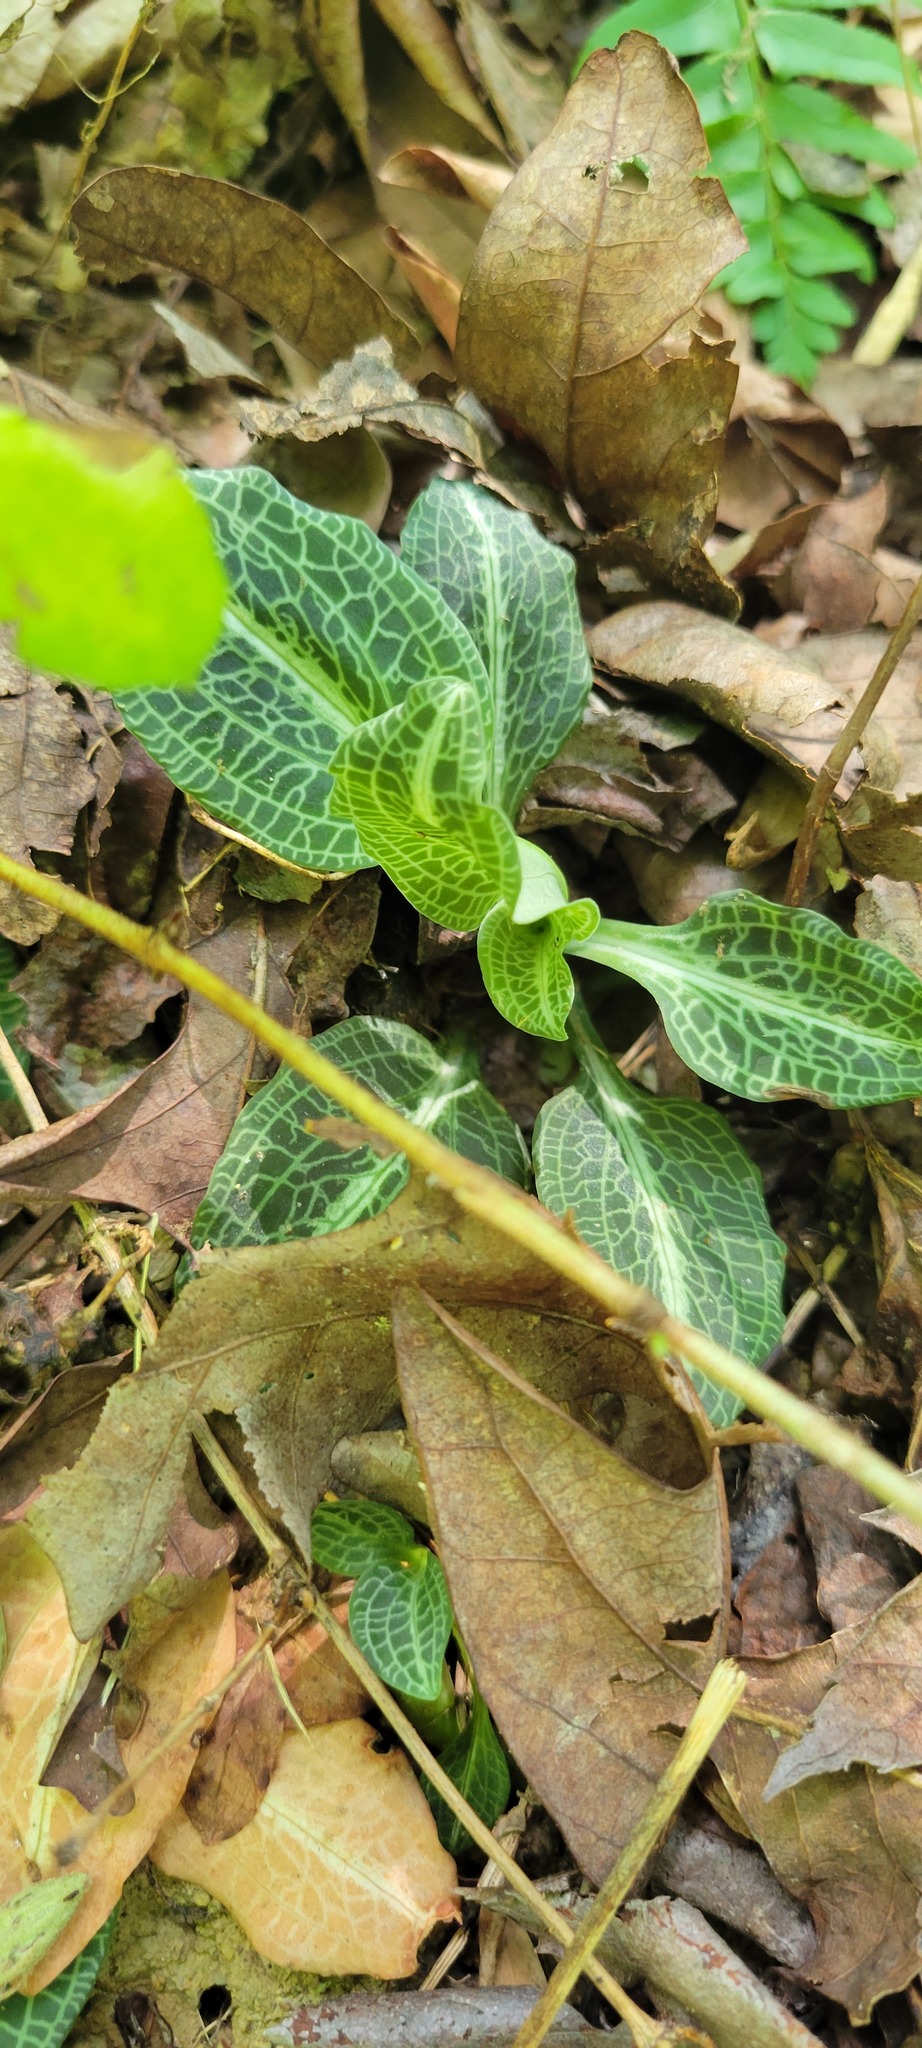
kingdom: Plantae
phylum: Tracheophyta
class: Liliopsida
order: Asparagales
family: Orchidaceae
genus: Goodyera
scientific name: Goodyera pubescens
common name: Downy rattlesnake-plantain
